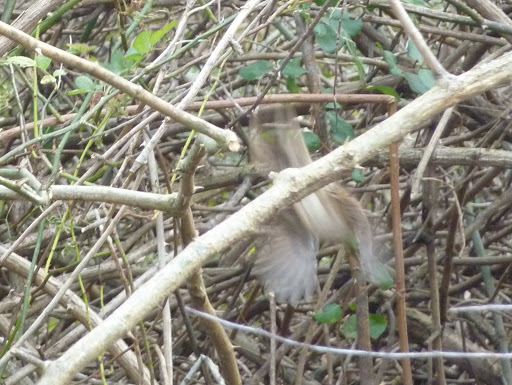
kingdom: Animalia
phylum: Chordata
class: Aves
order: Passeriformes
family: Passerellidae
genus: Melospiza
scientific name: Melospiza melodia
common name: Song sparrow
